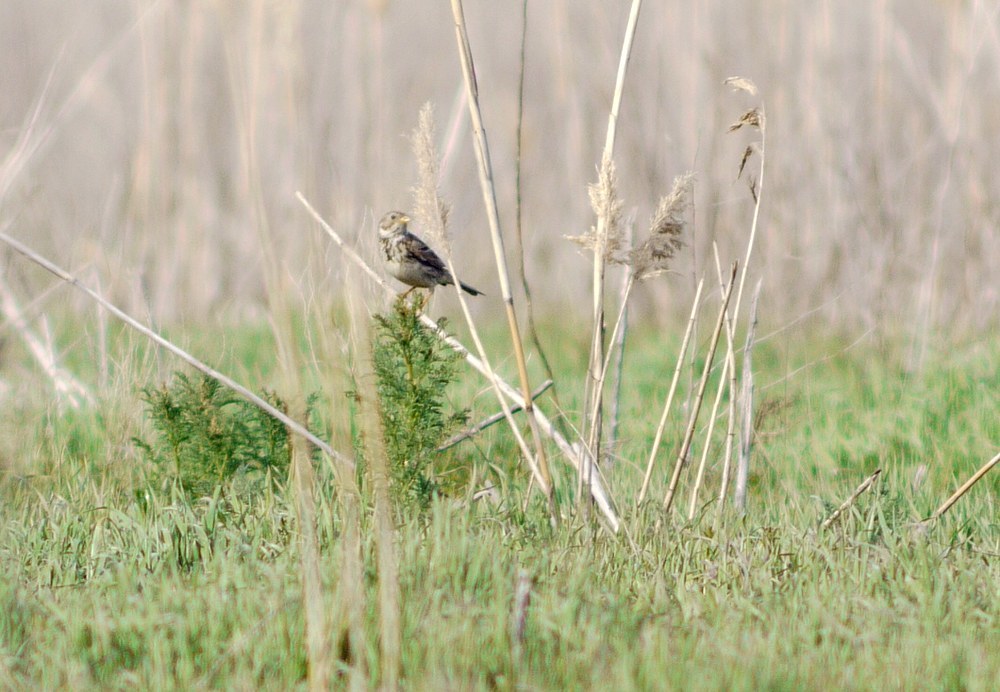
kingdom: Animalia
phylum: Chordata
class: Aves
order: Passeriformes
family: Emberizidae
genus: Emberiza
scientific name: Emberiza calandra
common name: Corn bunting
